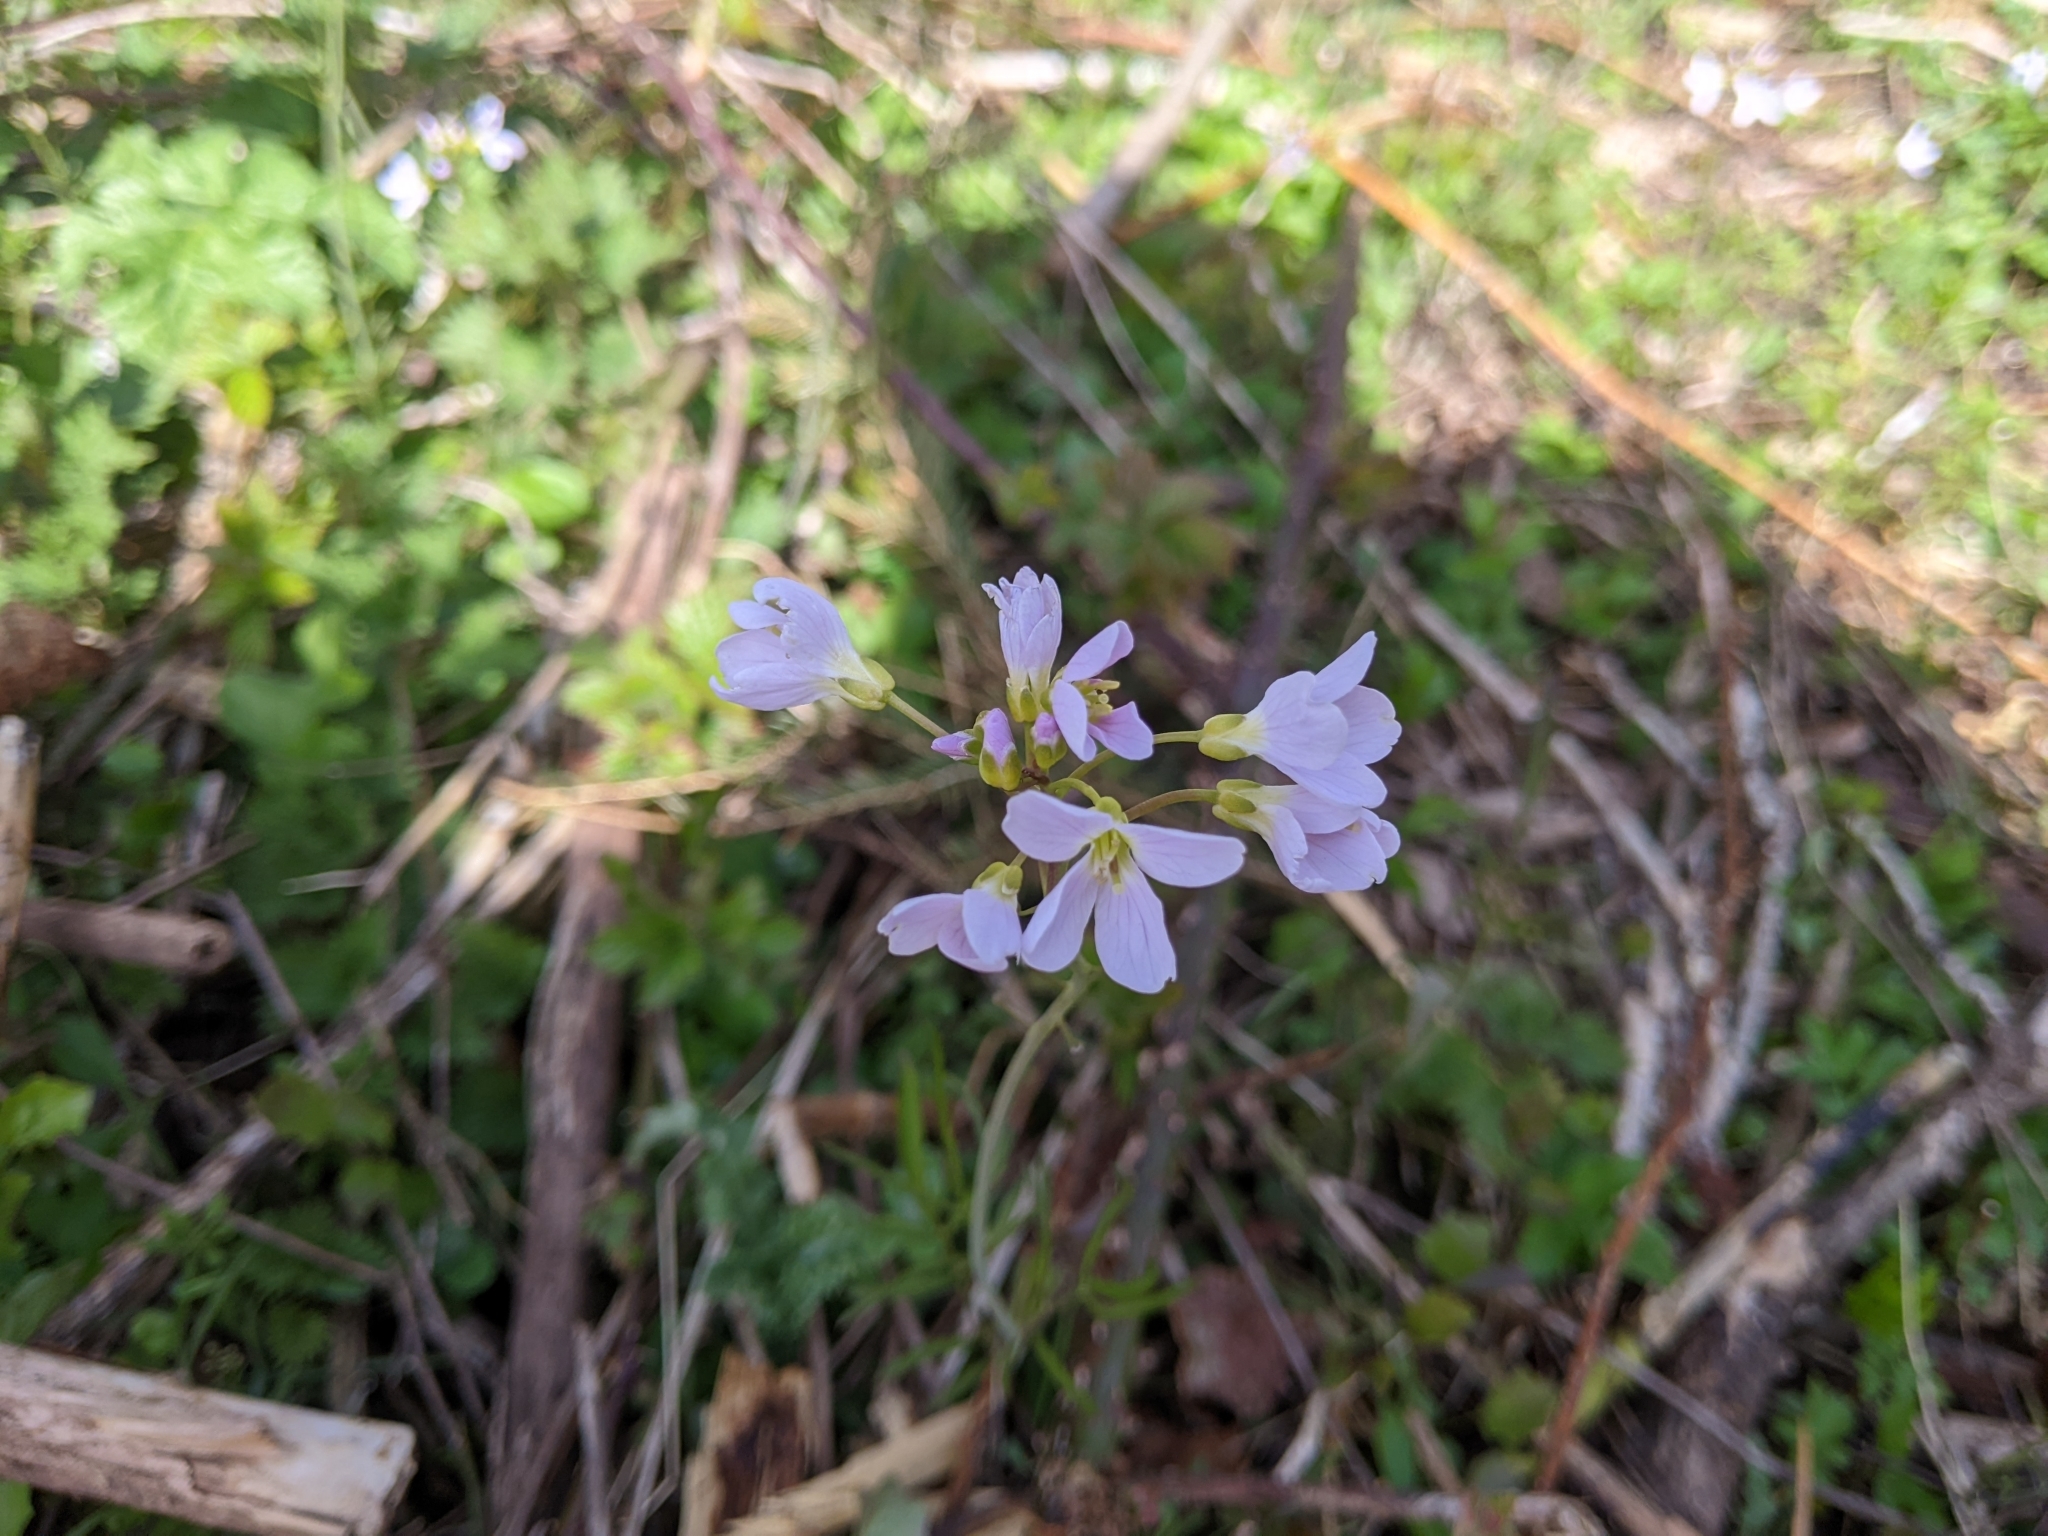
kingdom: Plantae
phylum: Tracheophyta
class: Magnoliopsida
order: Brassicales
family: Brassicaceae
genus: Cardamine
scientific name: Cardamine pratensis
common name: Cuckoo flower
